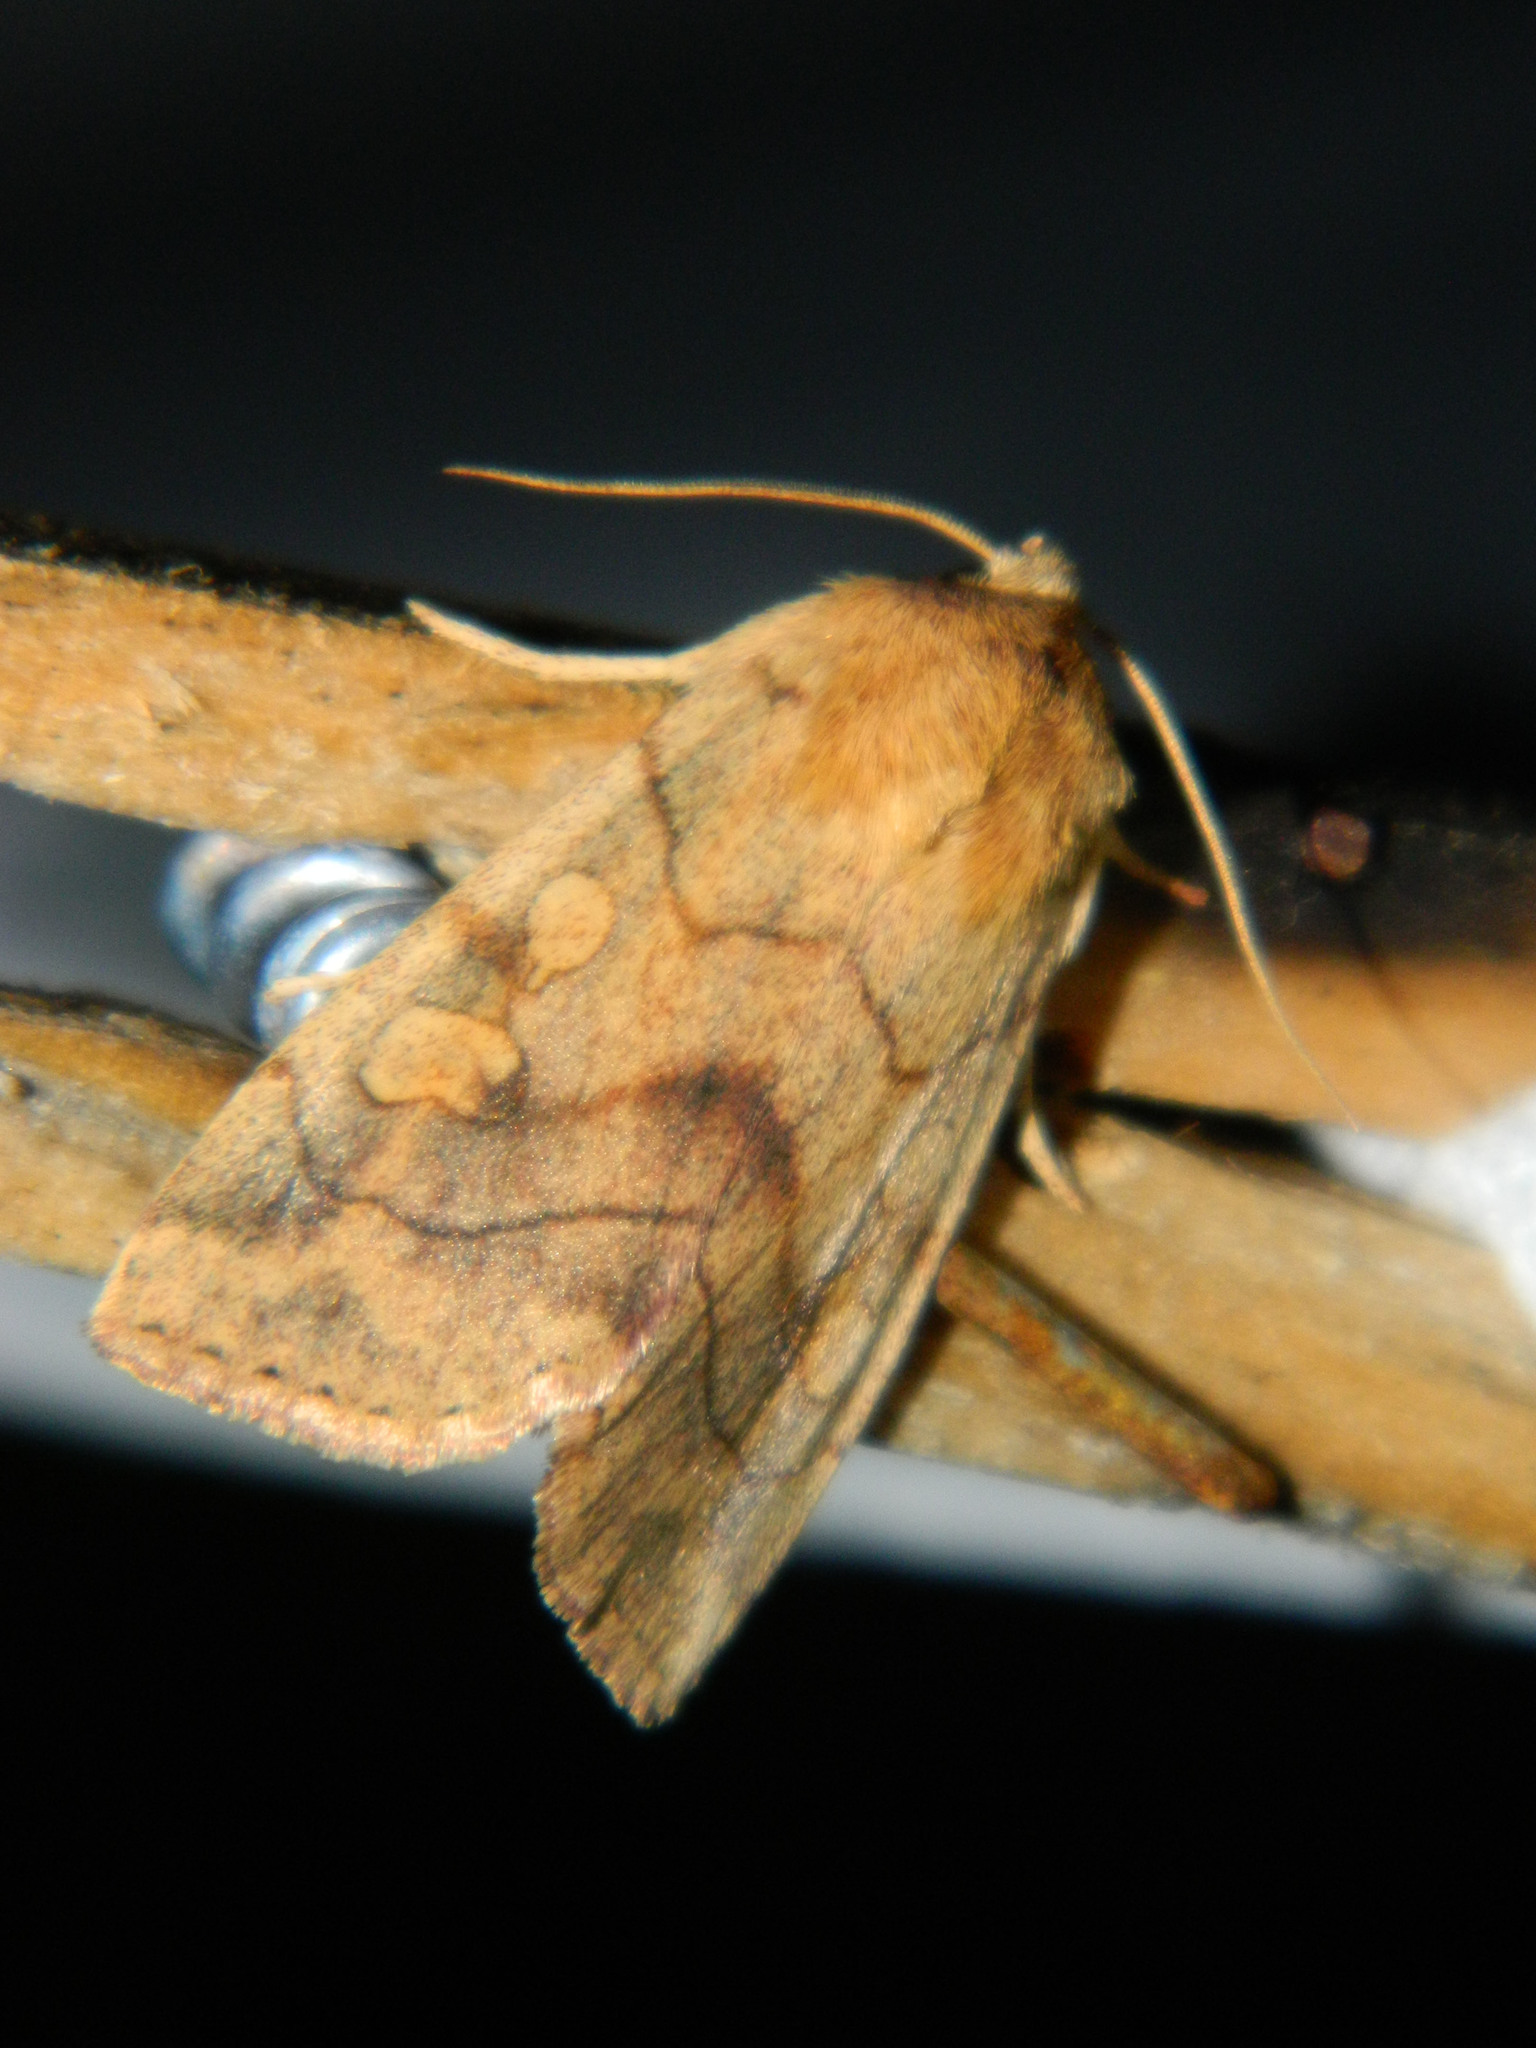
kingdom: Animalia
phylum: Arthropoda
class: Insecta
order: Lepidoptera
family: Noctuidae
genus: Enargia
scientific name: Enargia decolor
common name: Aspen twoleaf tier moth
